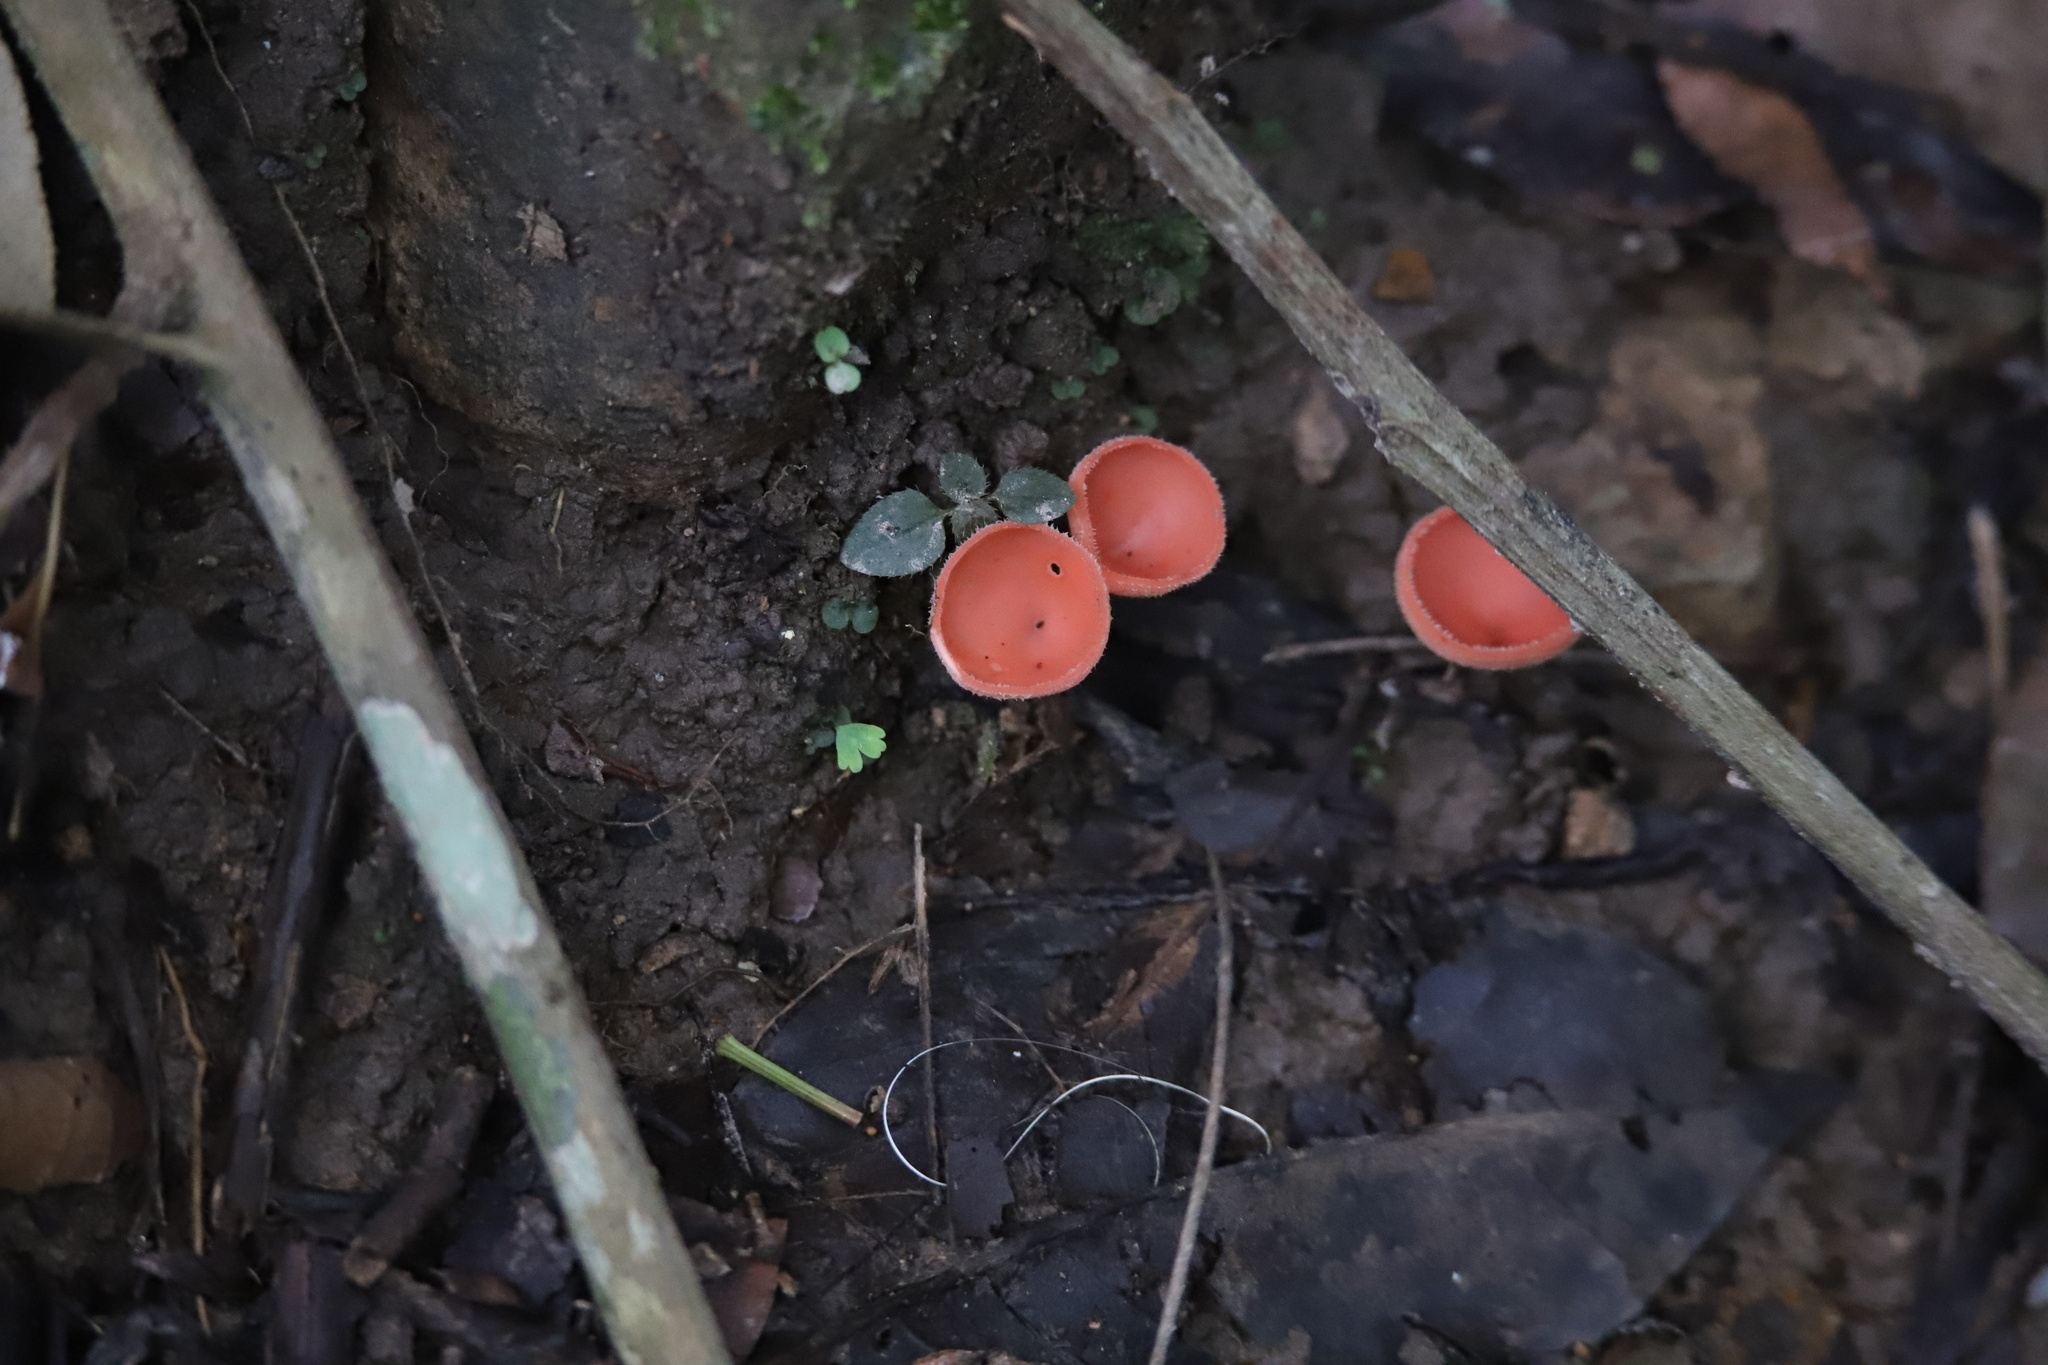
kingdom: Fungi
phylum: Ascomycota
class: Pezizomycetes
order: Pezizales
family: Sarcoscyphaceae
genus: Cookeina
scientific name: Cookeina speciosa
